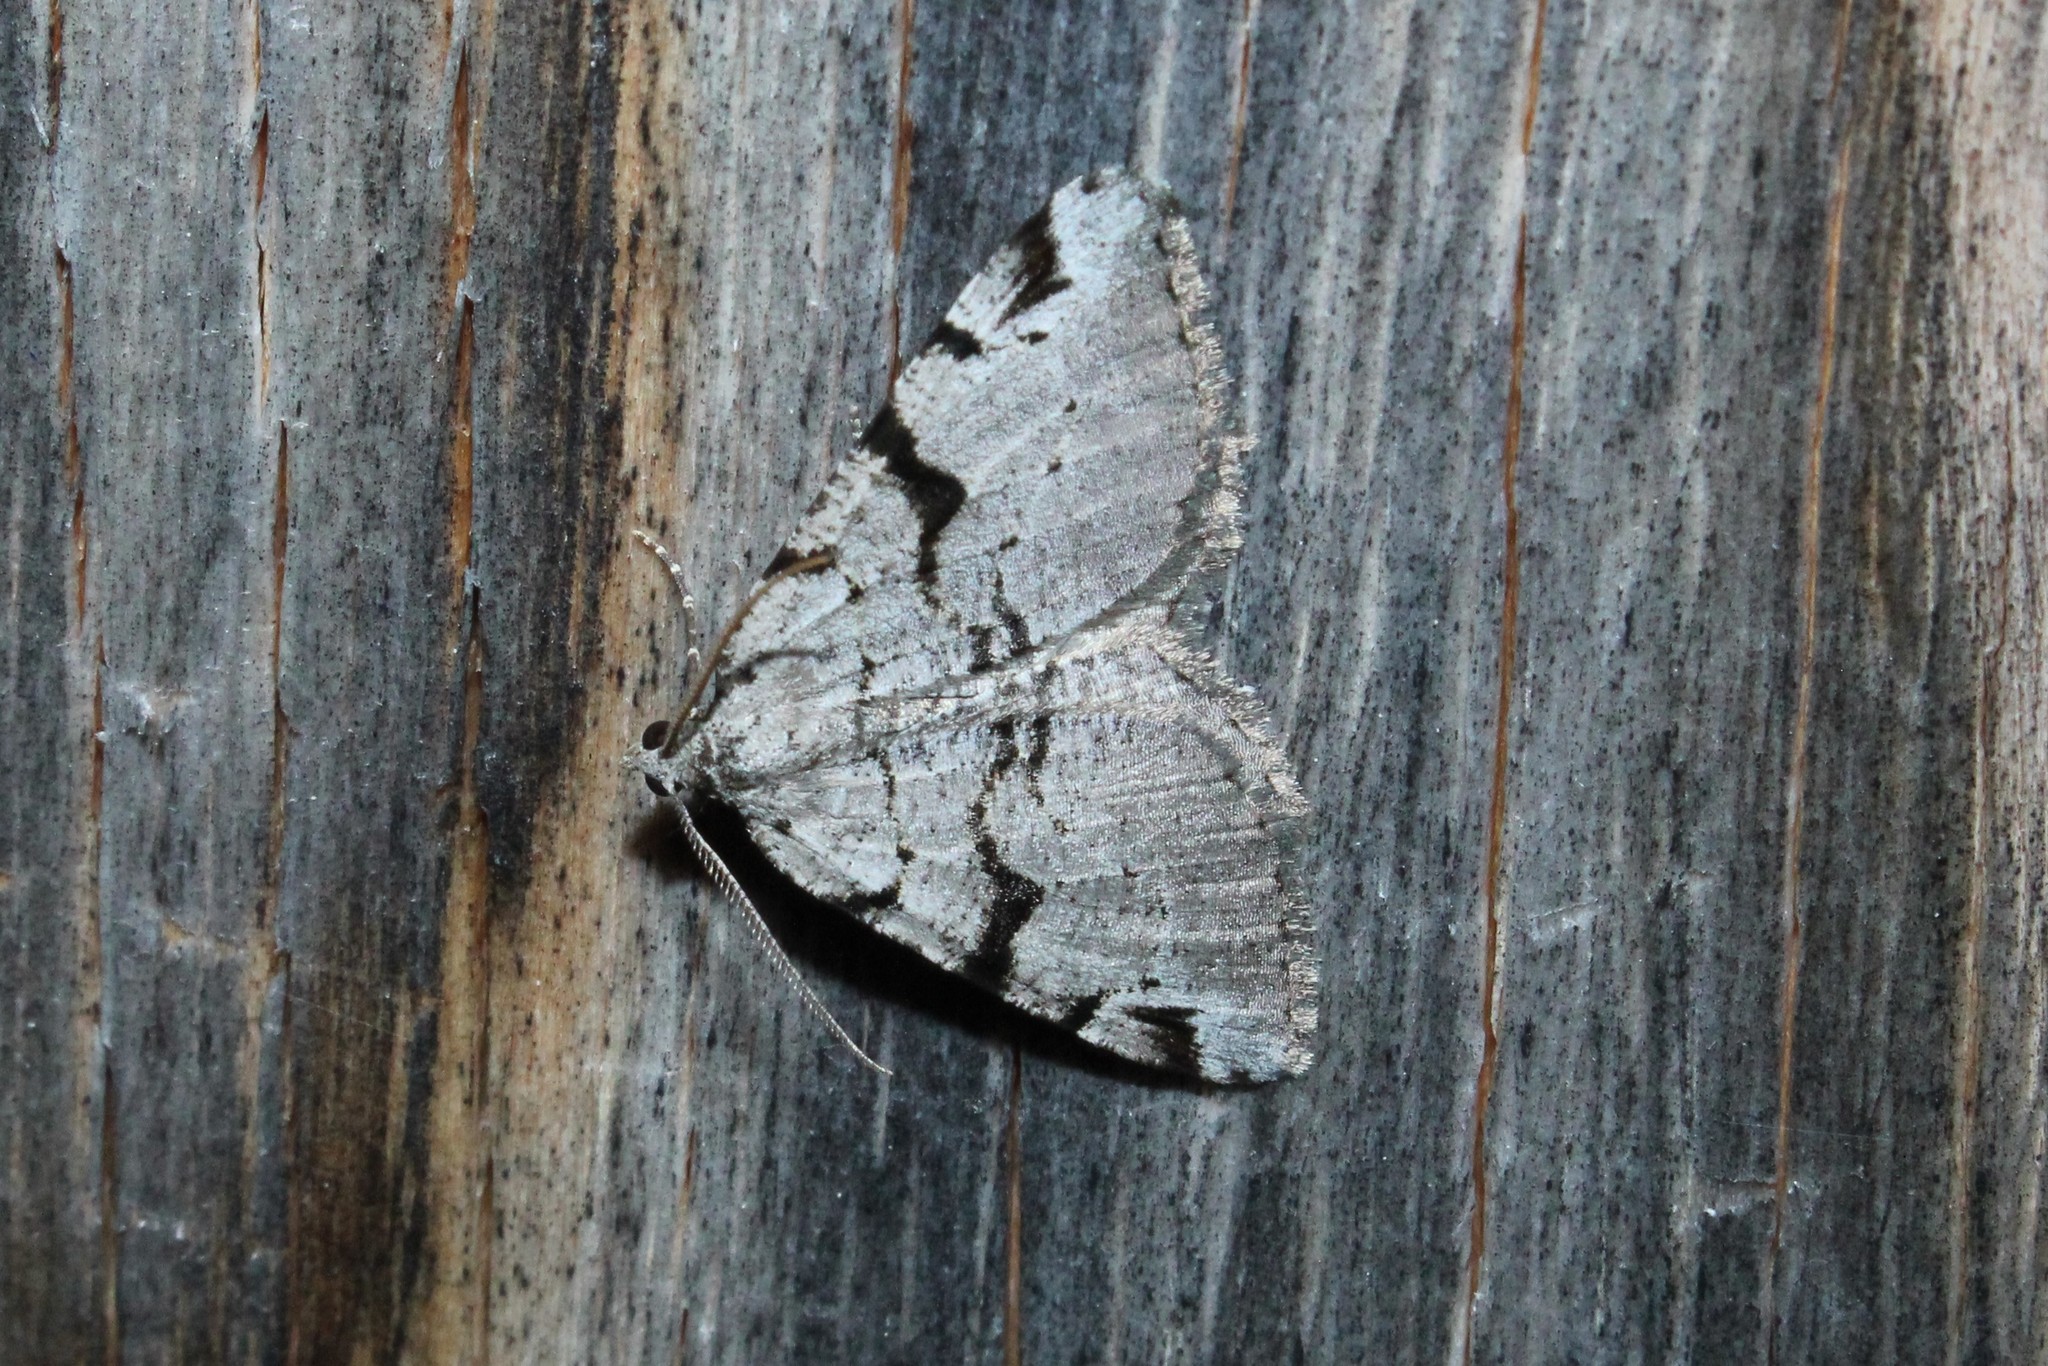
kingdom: Animalia
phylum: Arthropoda
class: Insecta
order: Lepidoptera
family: Geometridae
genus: Macaria
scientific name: Macaria bitactata
